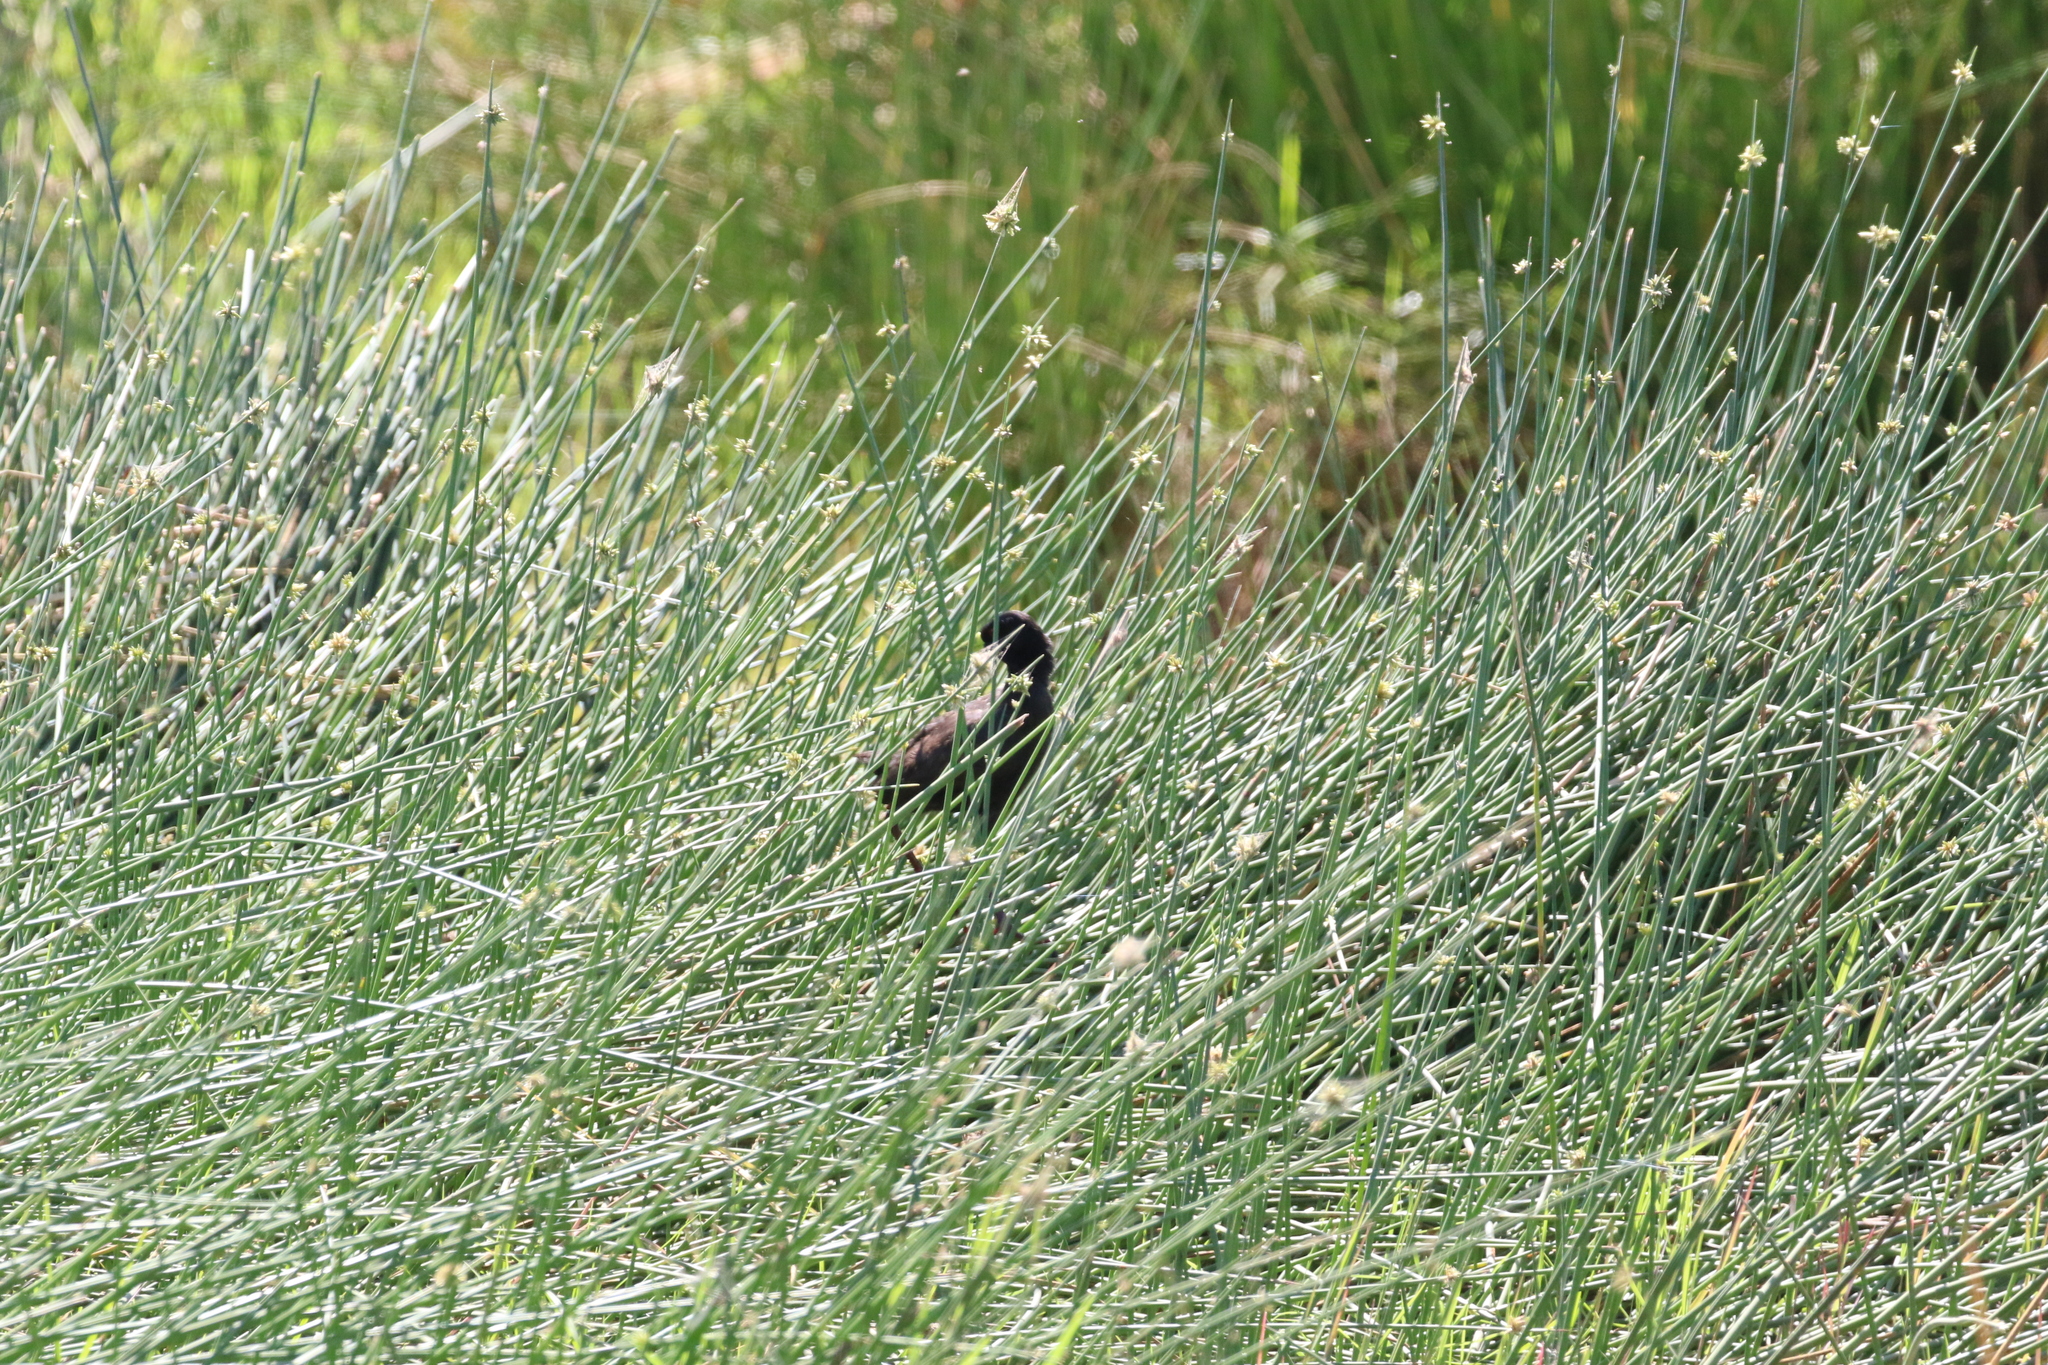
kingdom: Animalia
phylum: Chordata
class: Aves
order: Gruiformes
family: Rallidae
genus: Amaurornis
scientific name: Amaurornis flavirostra
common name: Black crake
